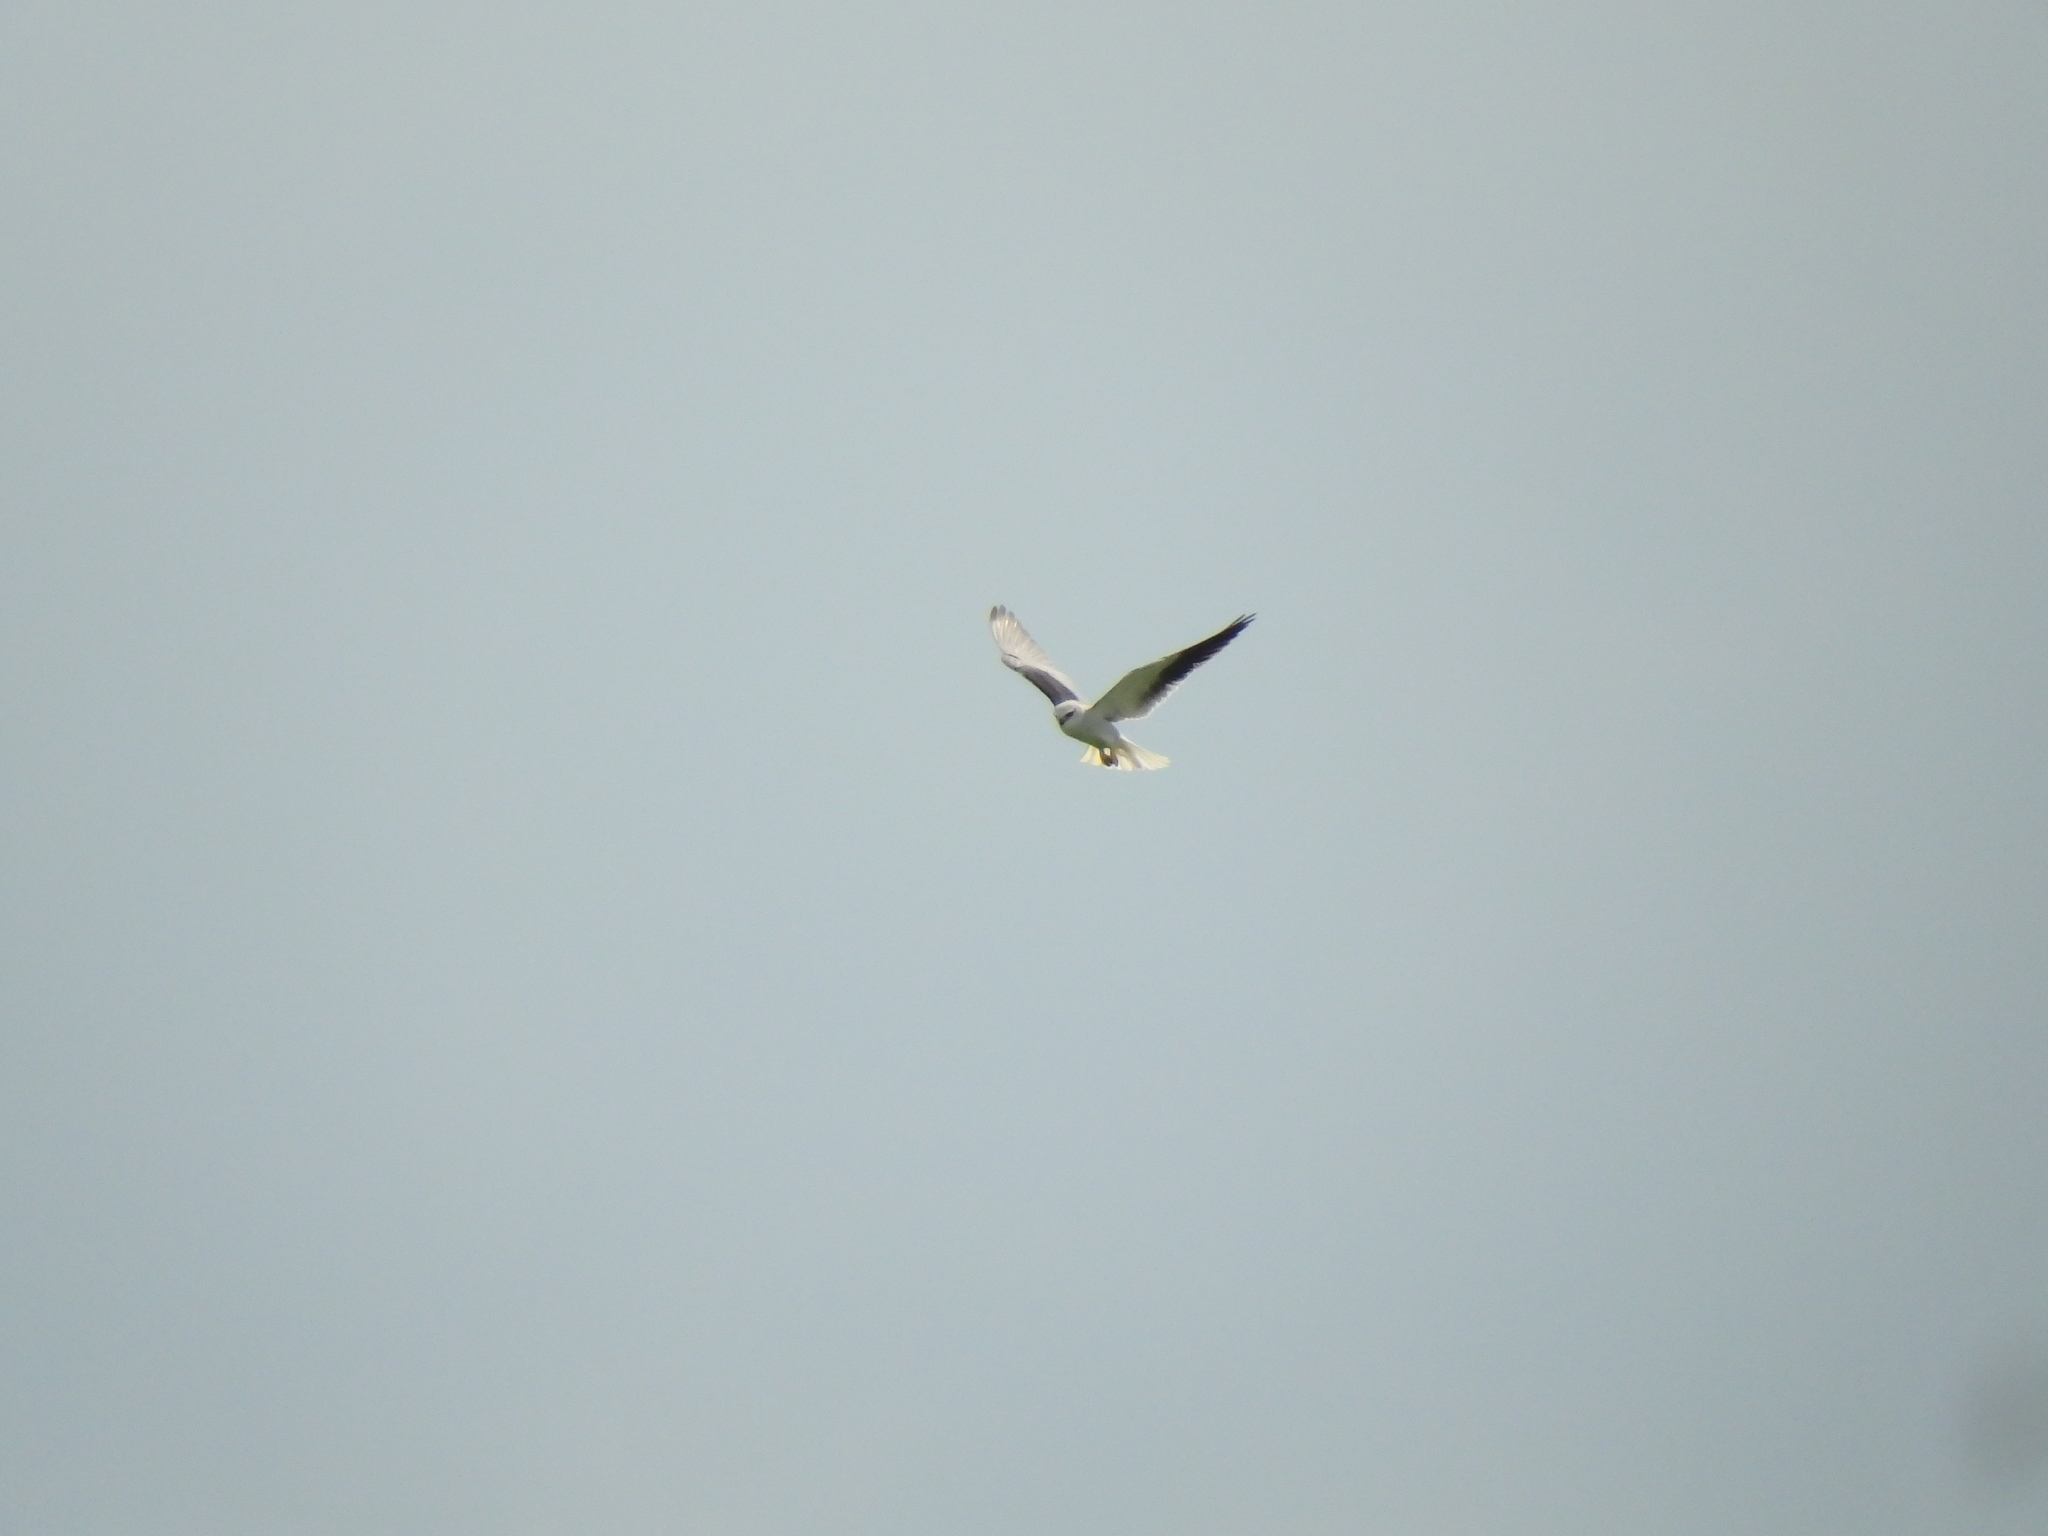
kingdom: Animalia
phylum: Chordata
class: Aves
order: Accipitriformes
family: Accipitridae
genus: Elanus
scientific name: Elanus caeruleus
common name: Black-winged kite
